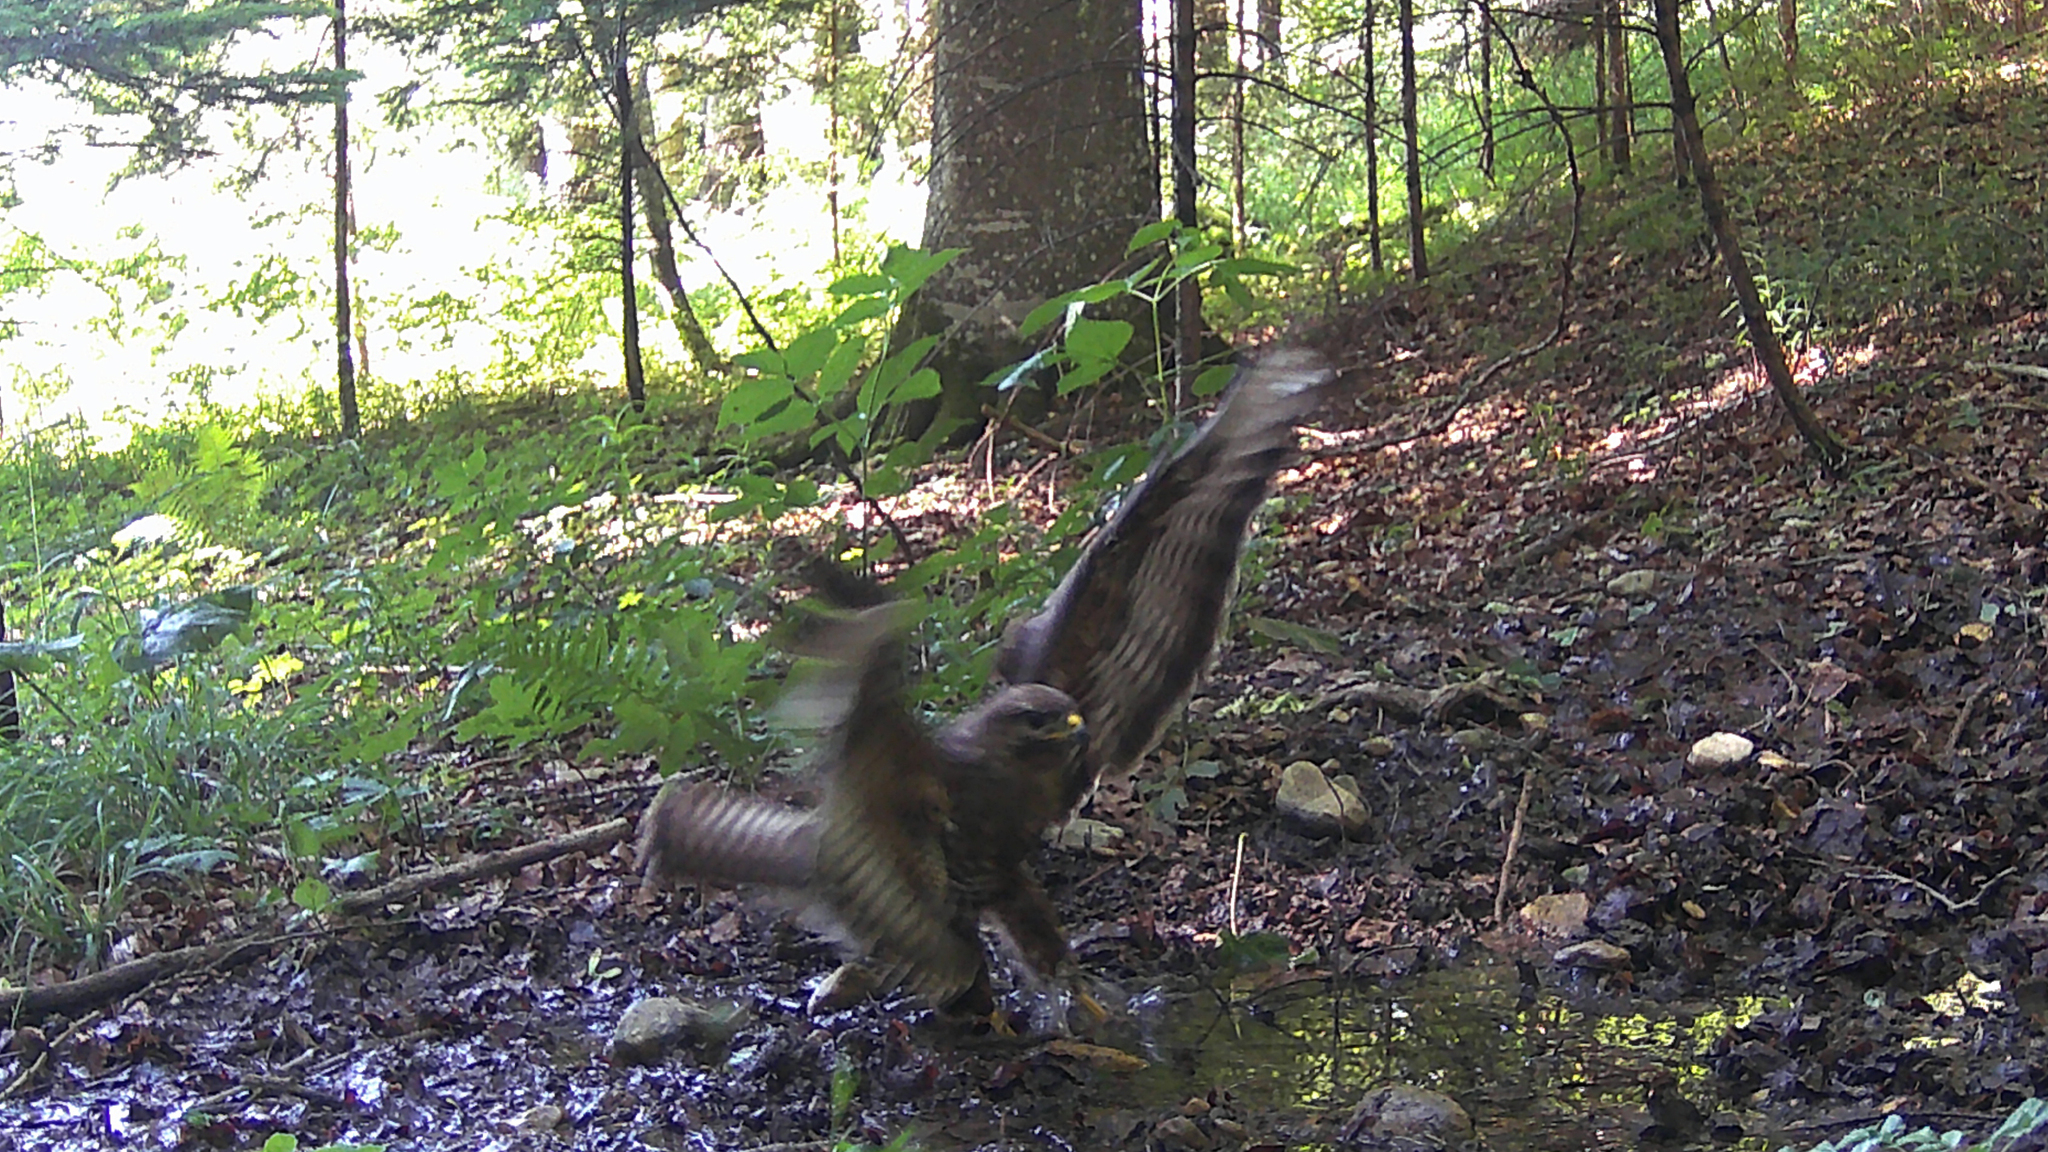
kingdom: Animalia
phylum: Chordata
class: Aves
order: Accipitriformes
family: Accipitridae
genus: Buteo
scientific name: Buteo buteo
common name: Common buzzard
